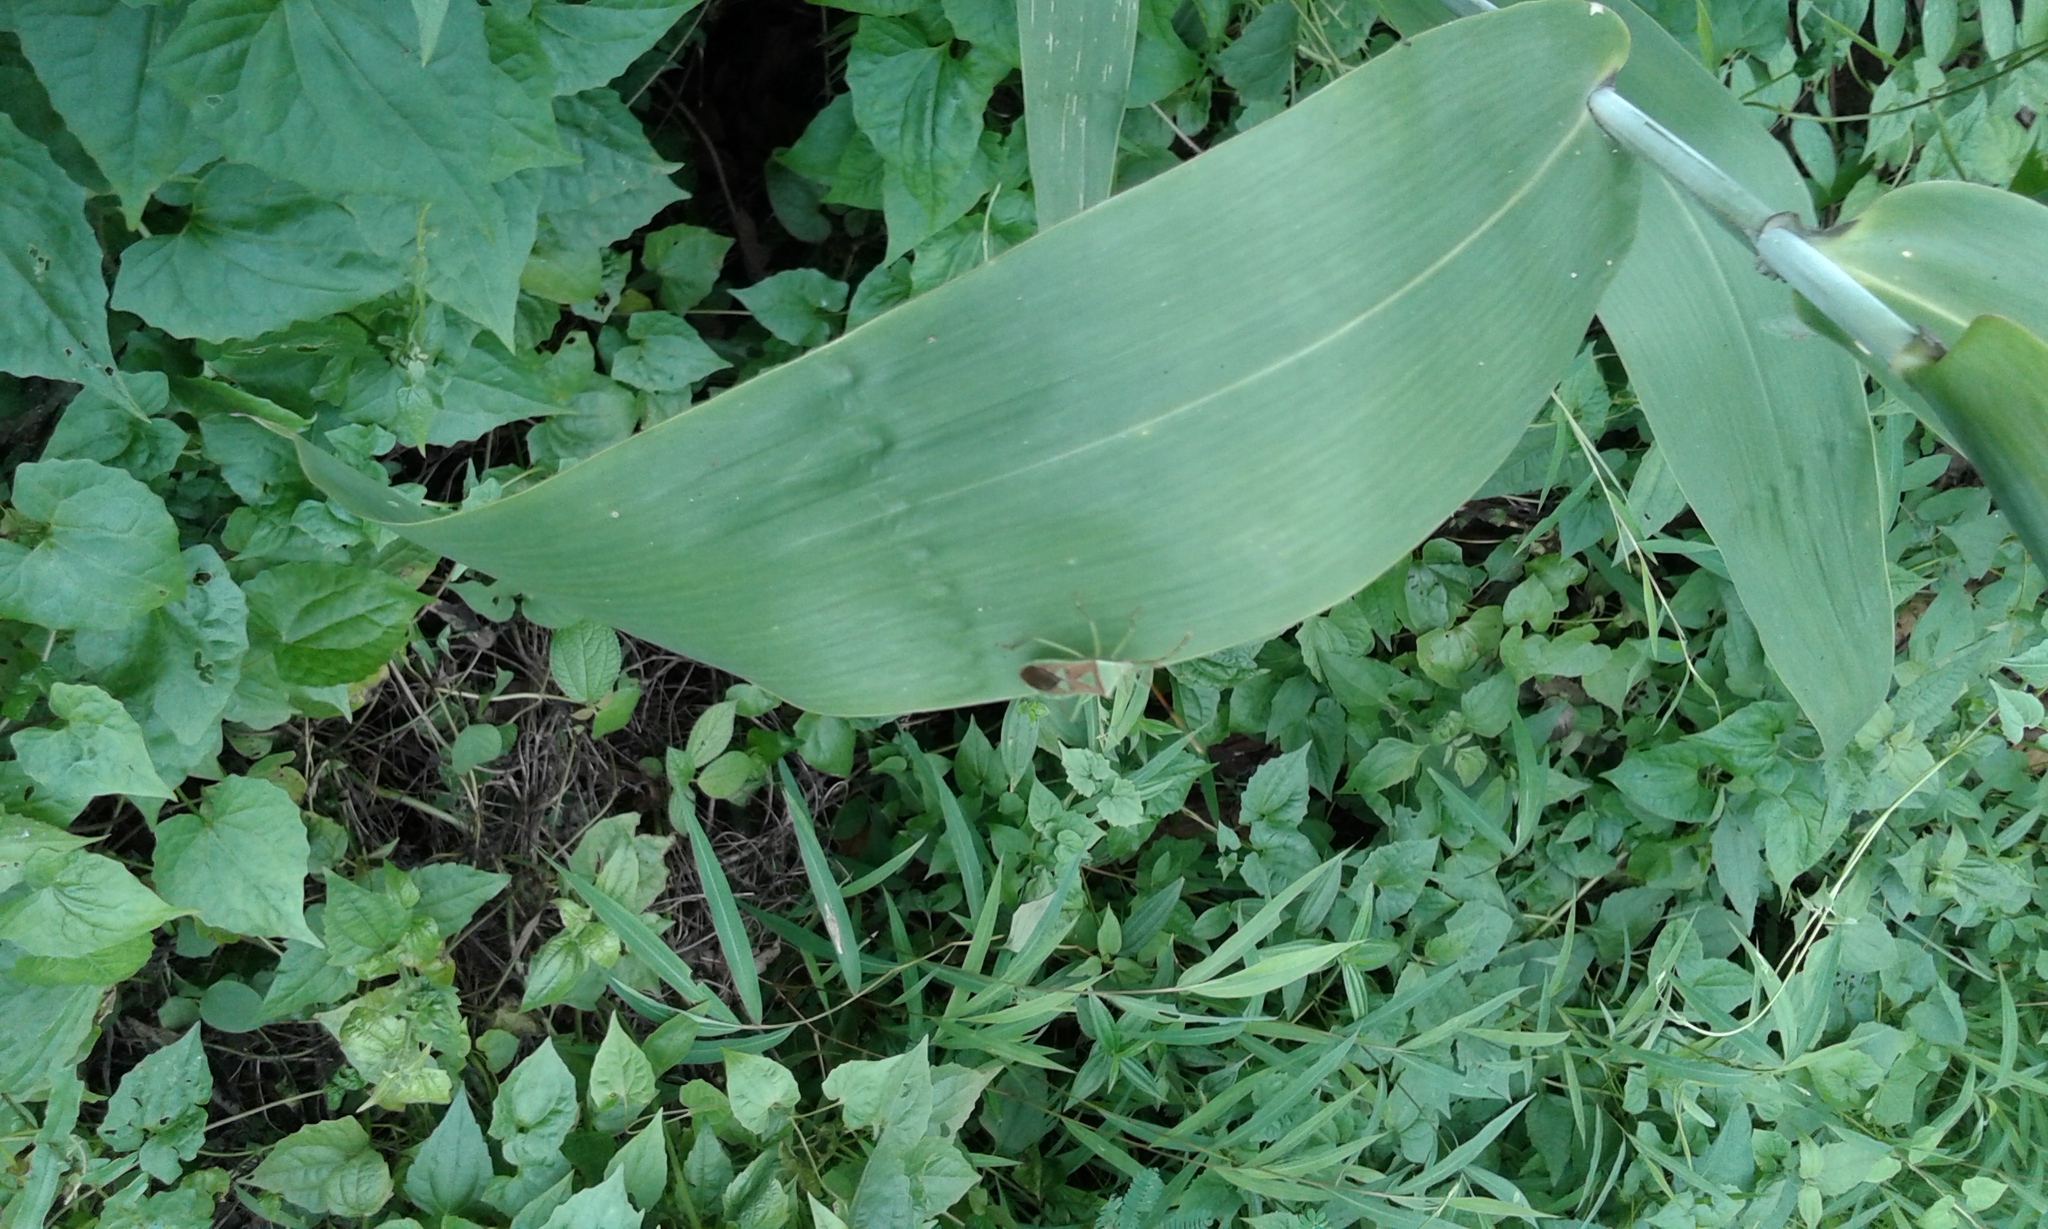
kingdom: Animalia
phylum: Arthropoda
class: Insecta
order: Hemiptera
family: Coreidae
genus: Prismatocerus
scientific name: Prismatocerus prominulus
